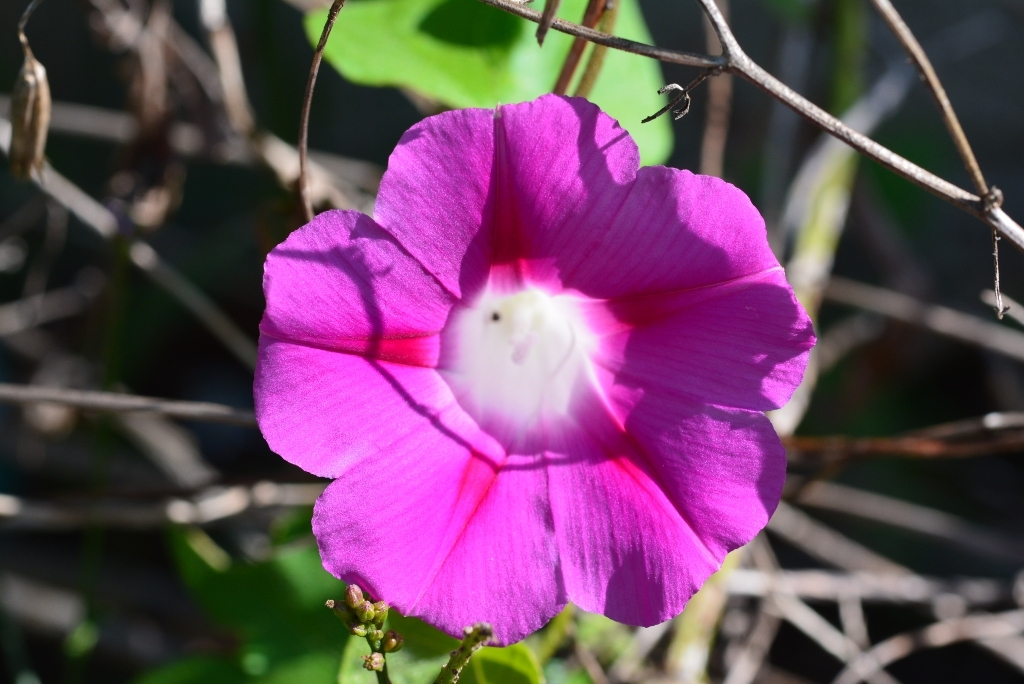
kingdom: Plantae
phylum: Tracheophyta
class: Magnoliopsida
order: Solanales
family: Convolvulaceae
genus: Ipomoea
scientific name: Ipomoea purpurea
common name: Common morning-glory
